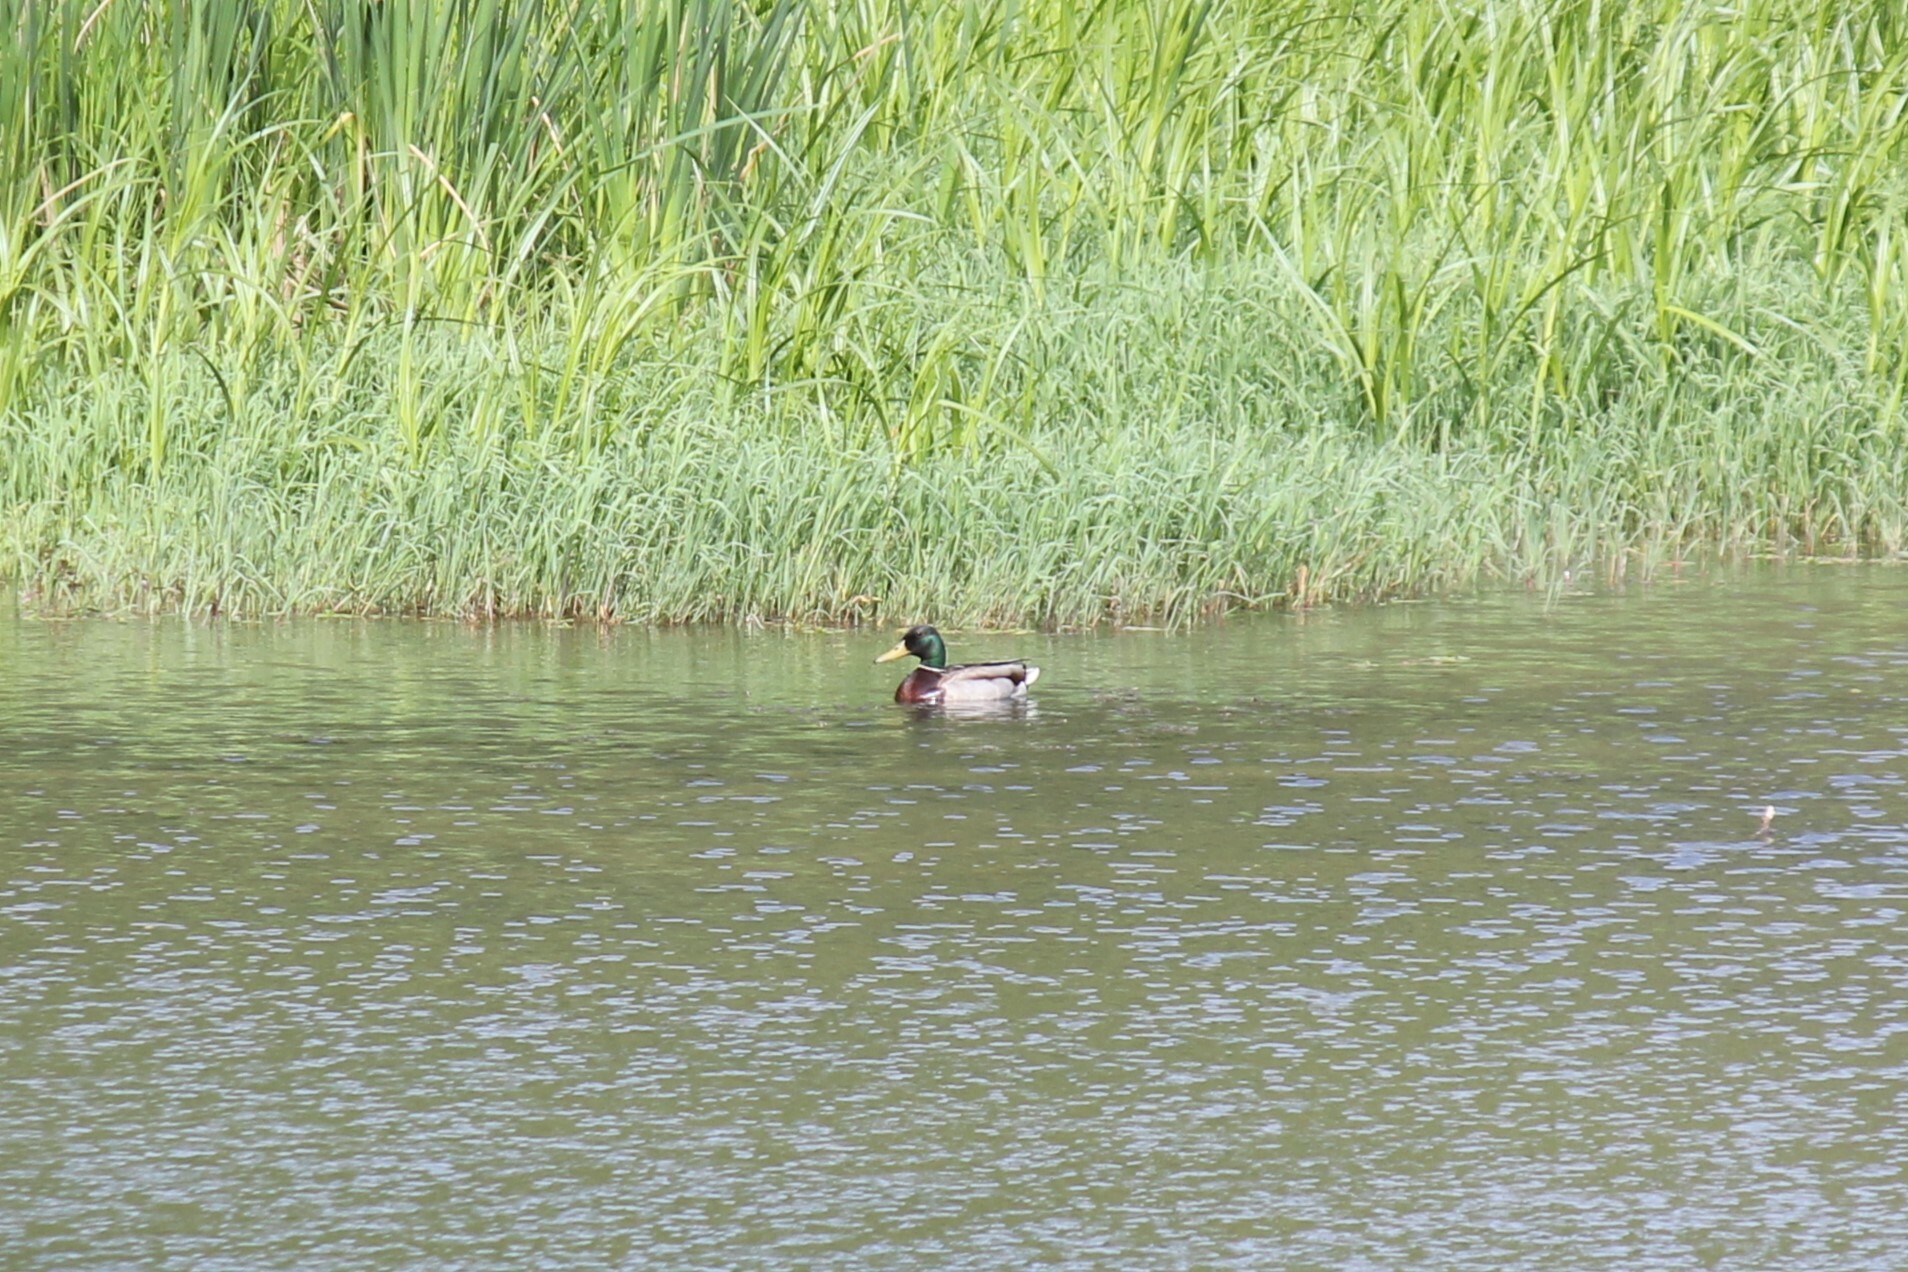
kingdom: Animalia
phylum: Chordata
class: Aves
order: Anseriformes
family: Anatidae
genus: Anas
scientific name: Anas platyrhynchos
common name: Mallard
